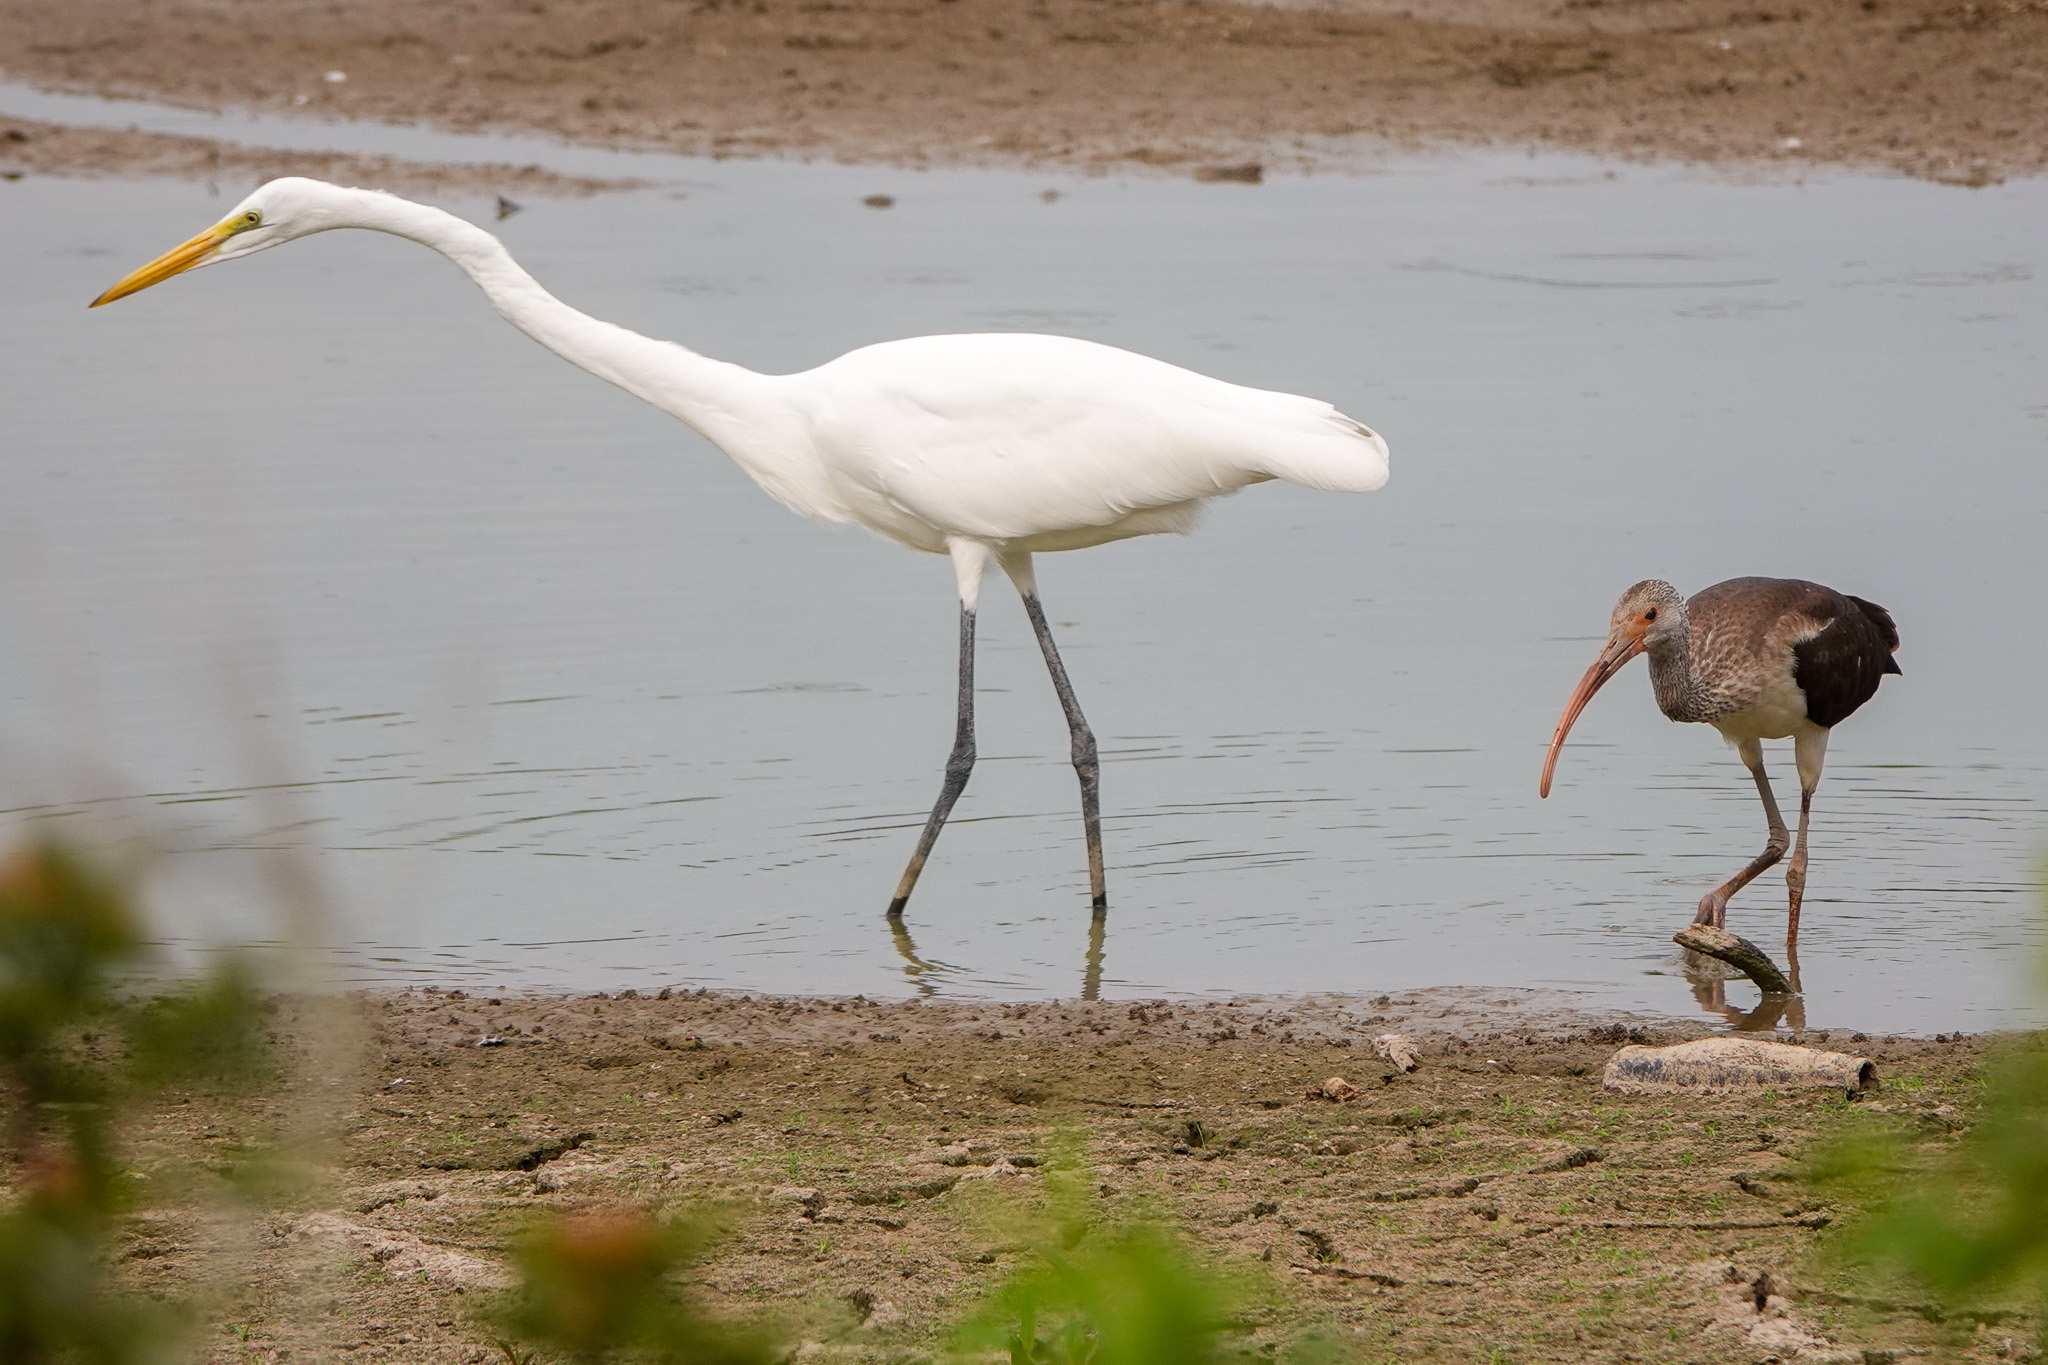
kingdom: Animalia
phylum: Chordata
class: Aves
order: Pelecaniformes
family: Ardeidae
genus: Ardea
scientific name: Ardea alba
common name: Great egret
